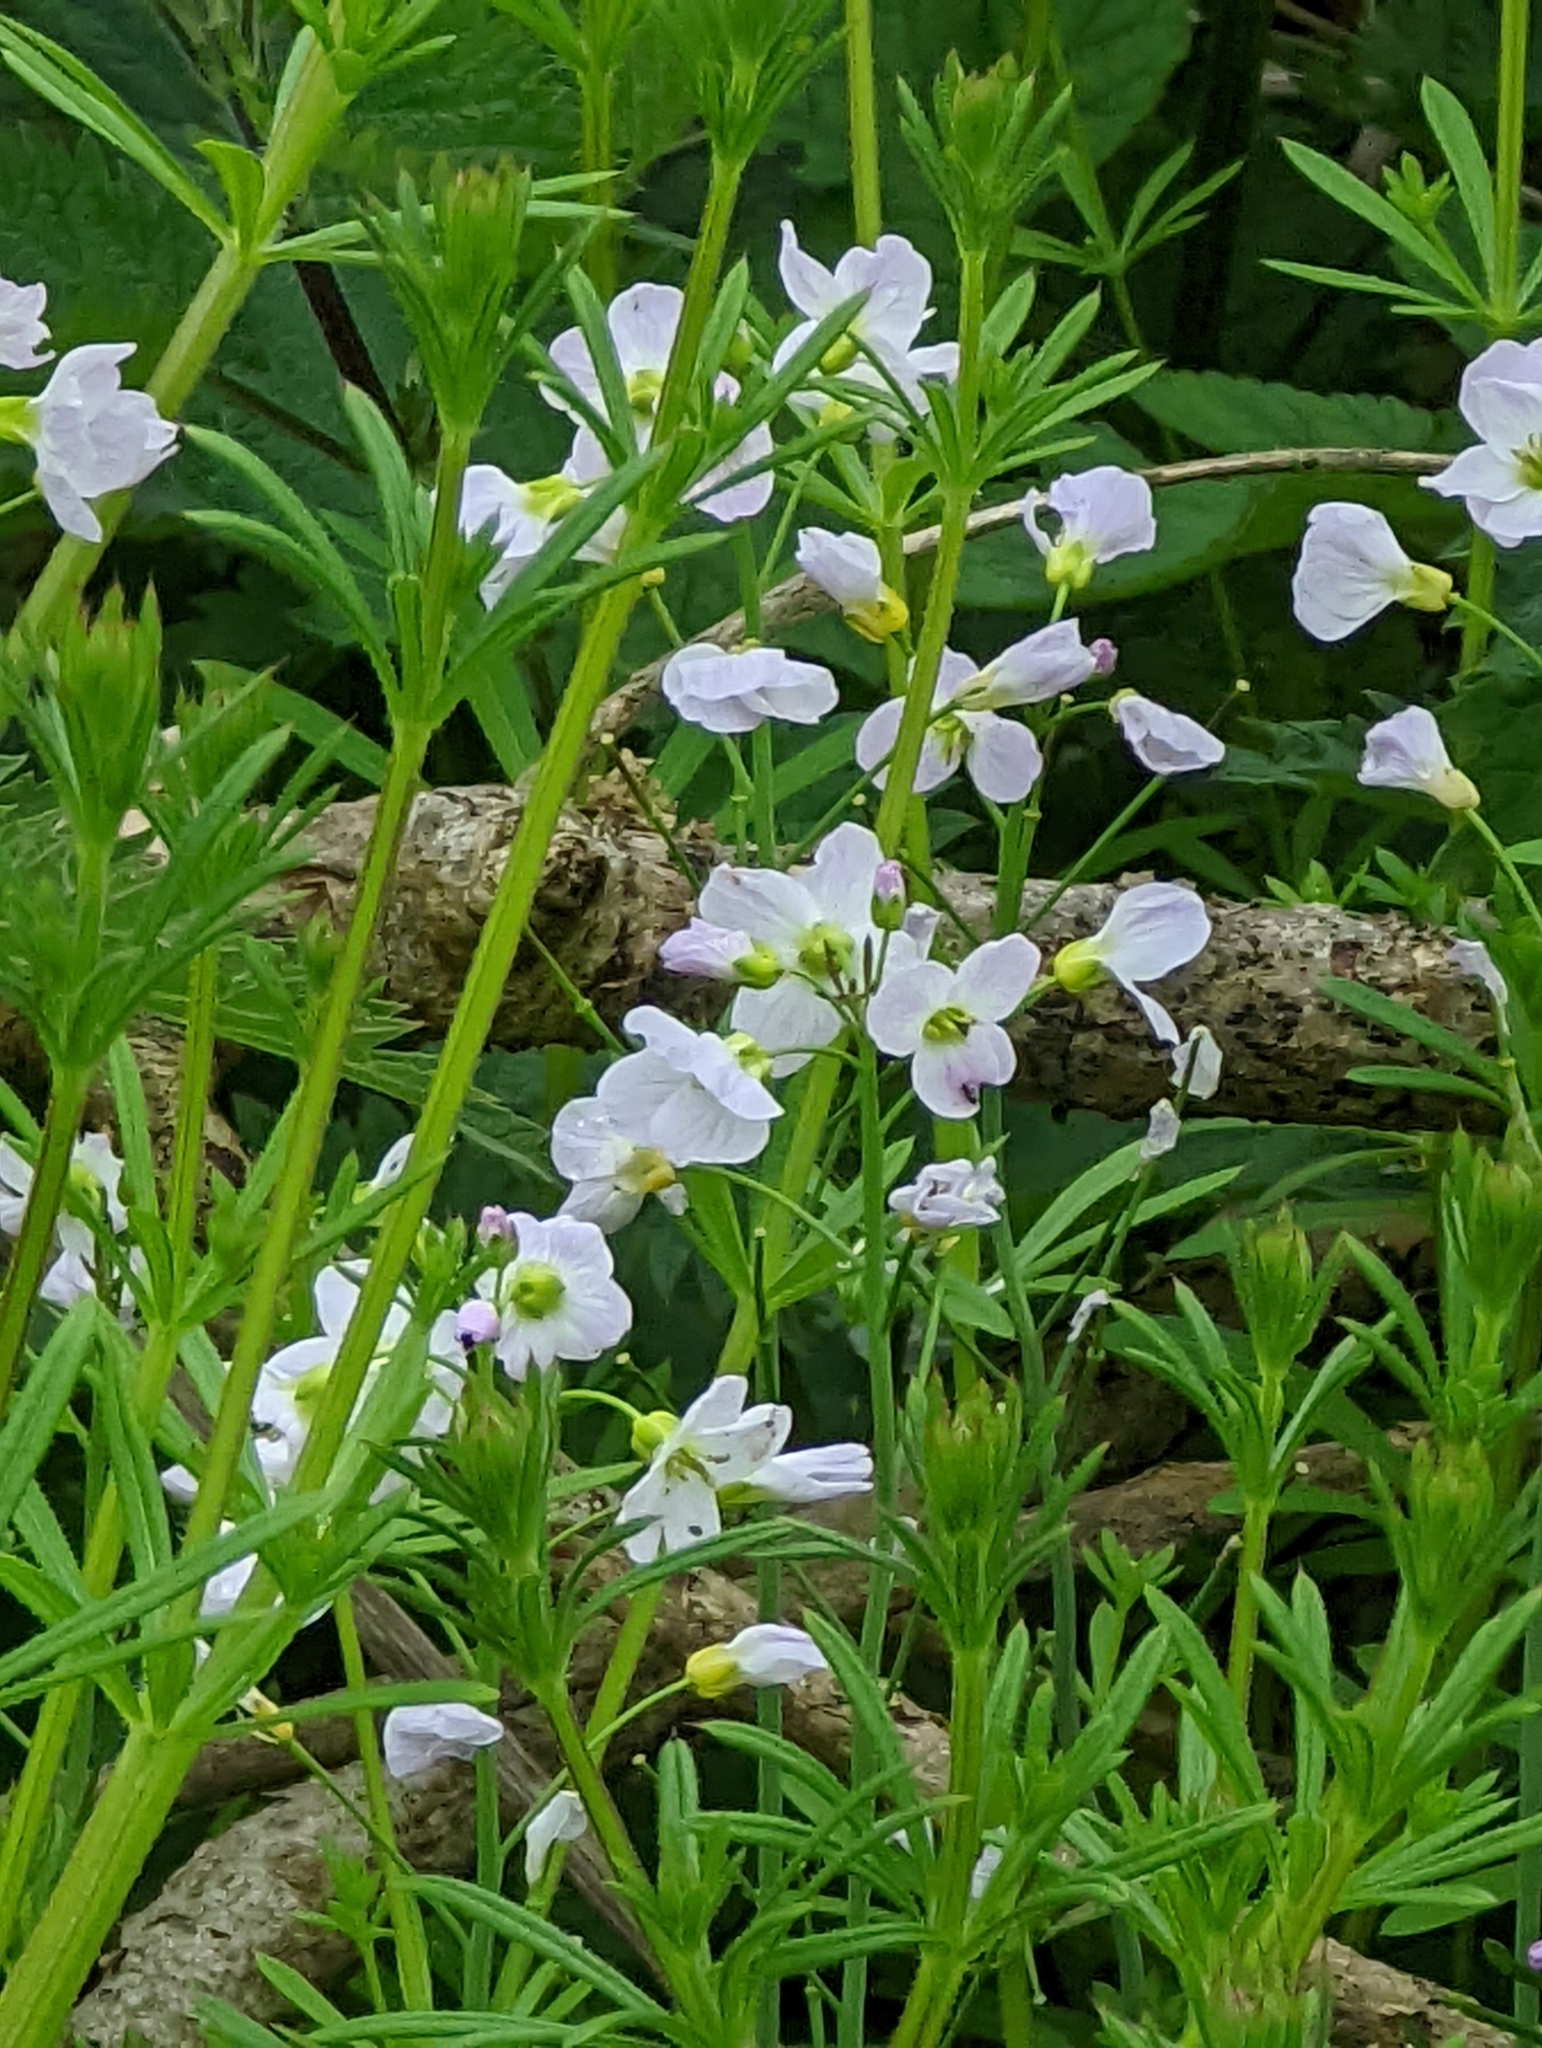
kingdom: Plantae
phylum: Tracheophyta
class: Magnoliopsida
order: Brassicales
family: Brassicaceae
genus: Cardamine
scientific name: Cardamine pratensis
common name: Cuckoo flower
